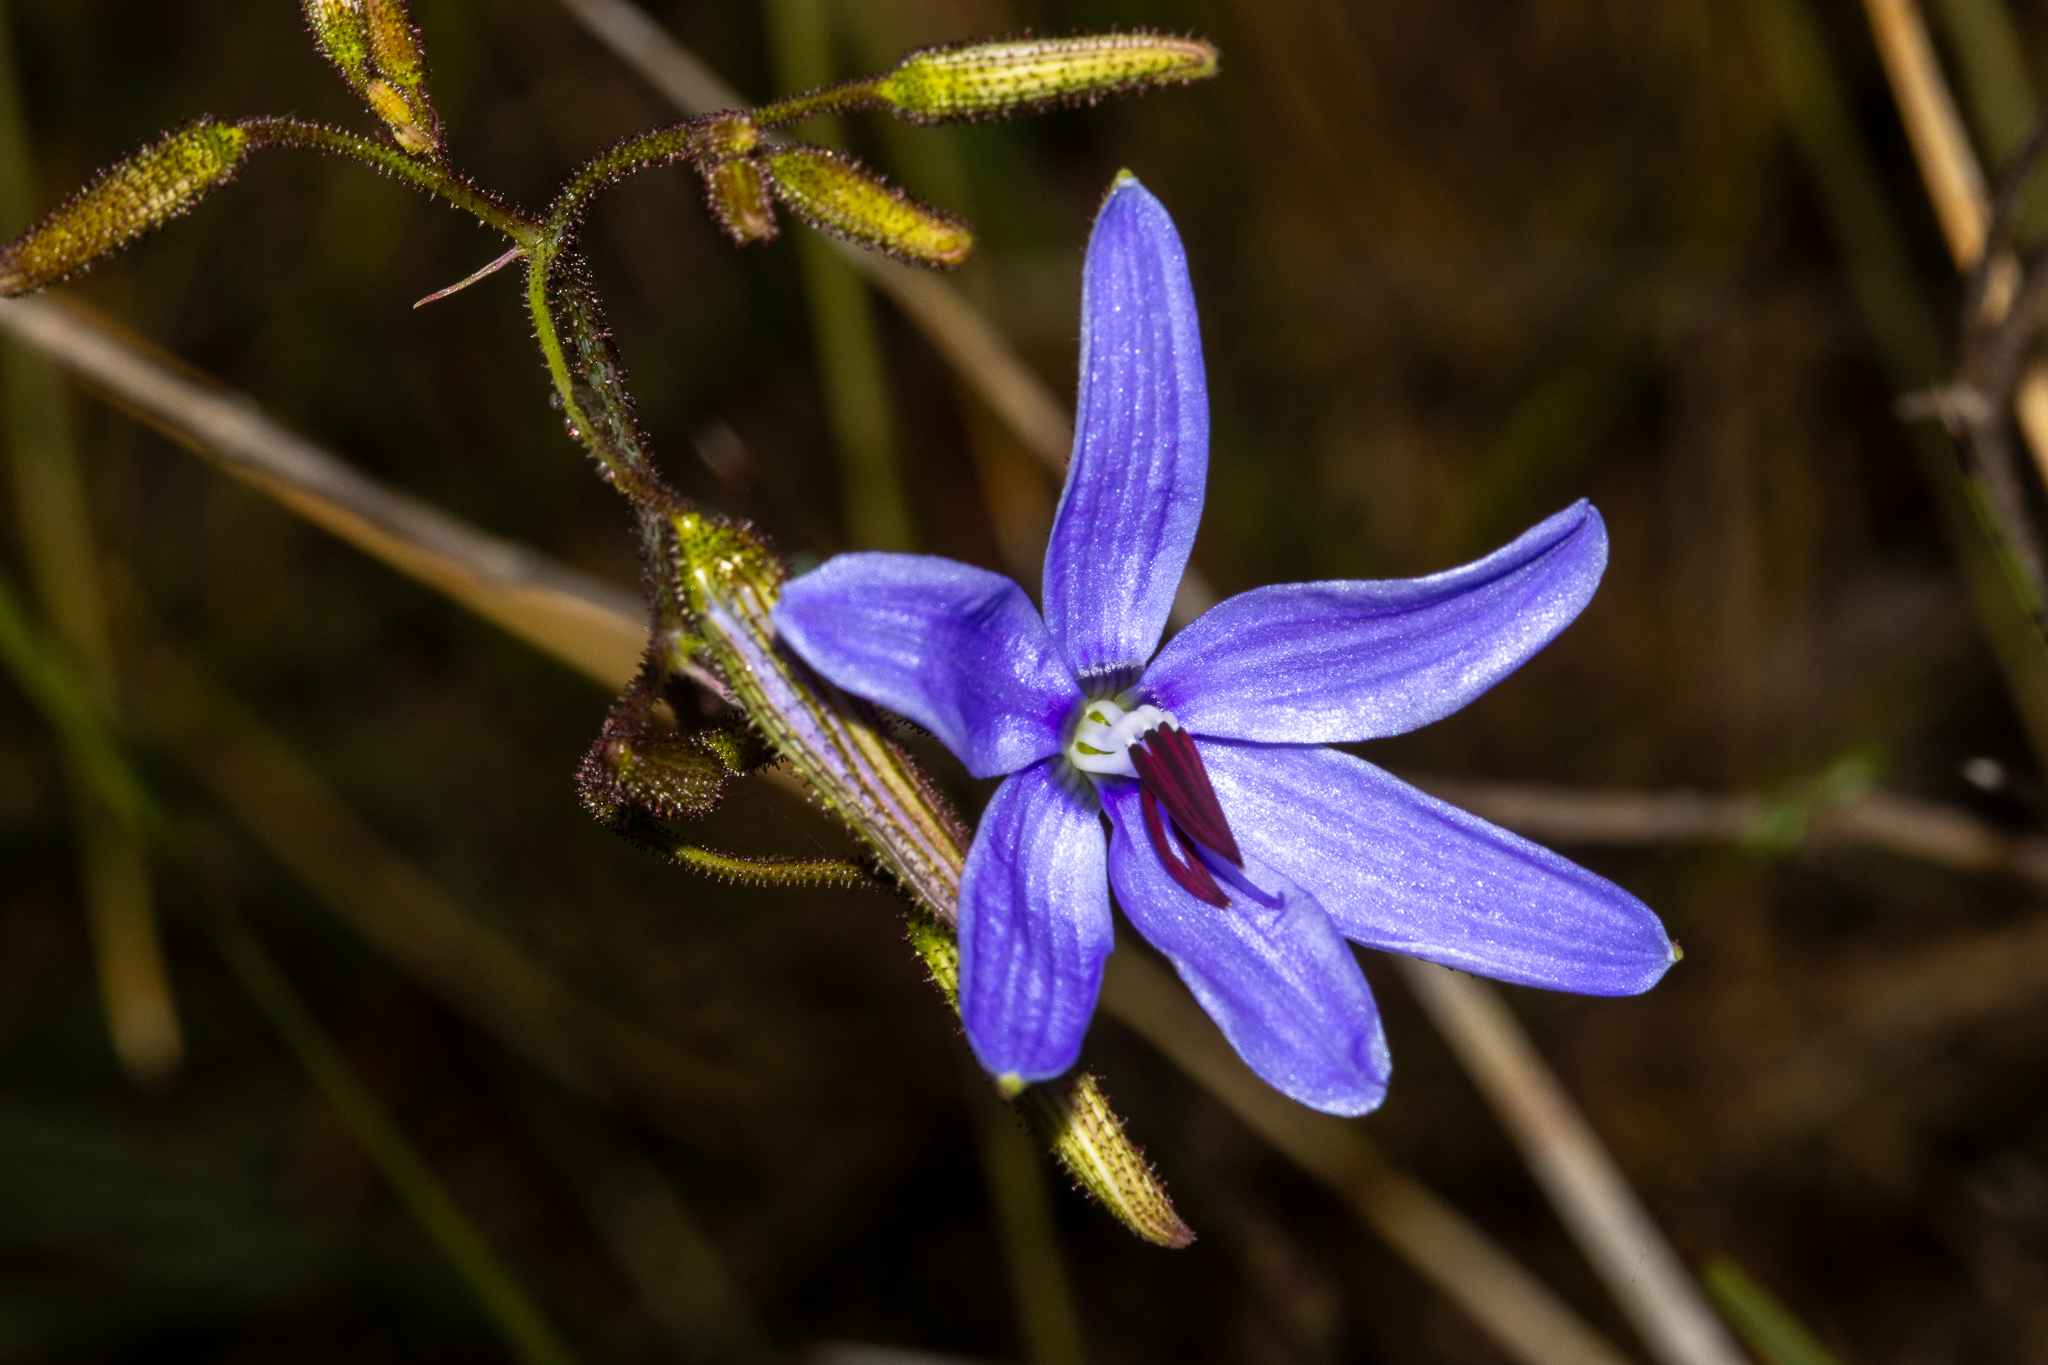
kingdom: Plantae
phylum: Tracheophyta
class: Liliopsida
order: Asparagales
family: Asphodelaceae
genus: Agrostocrinum
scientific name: Agrostocrinum hirsutum
